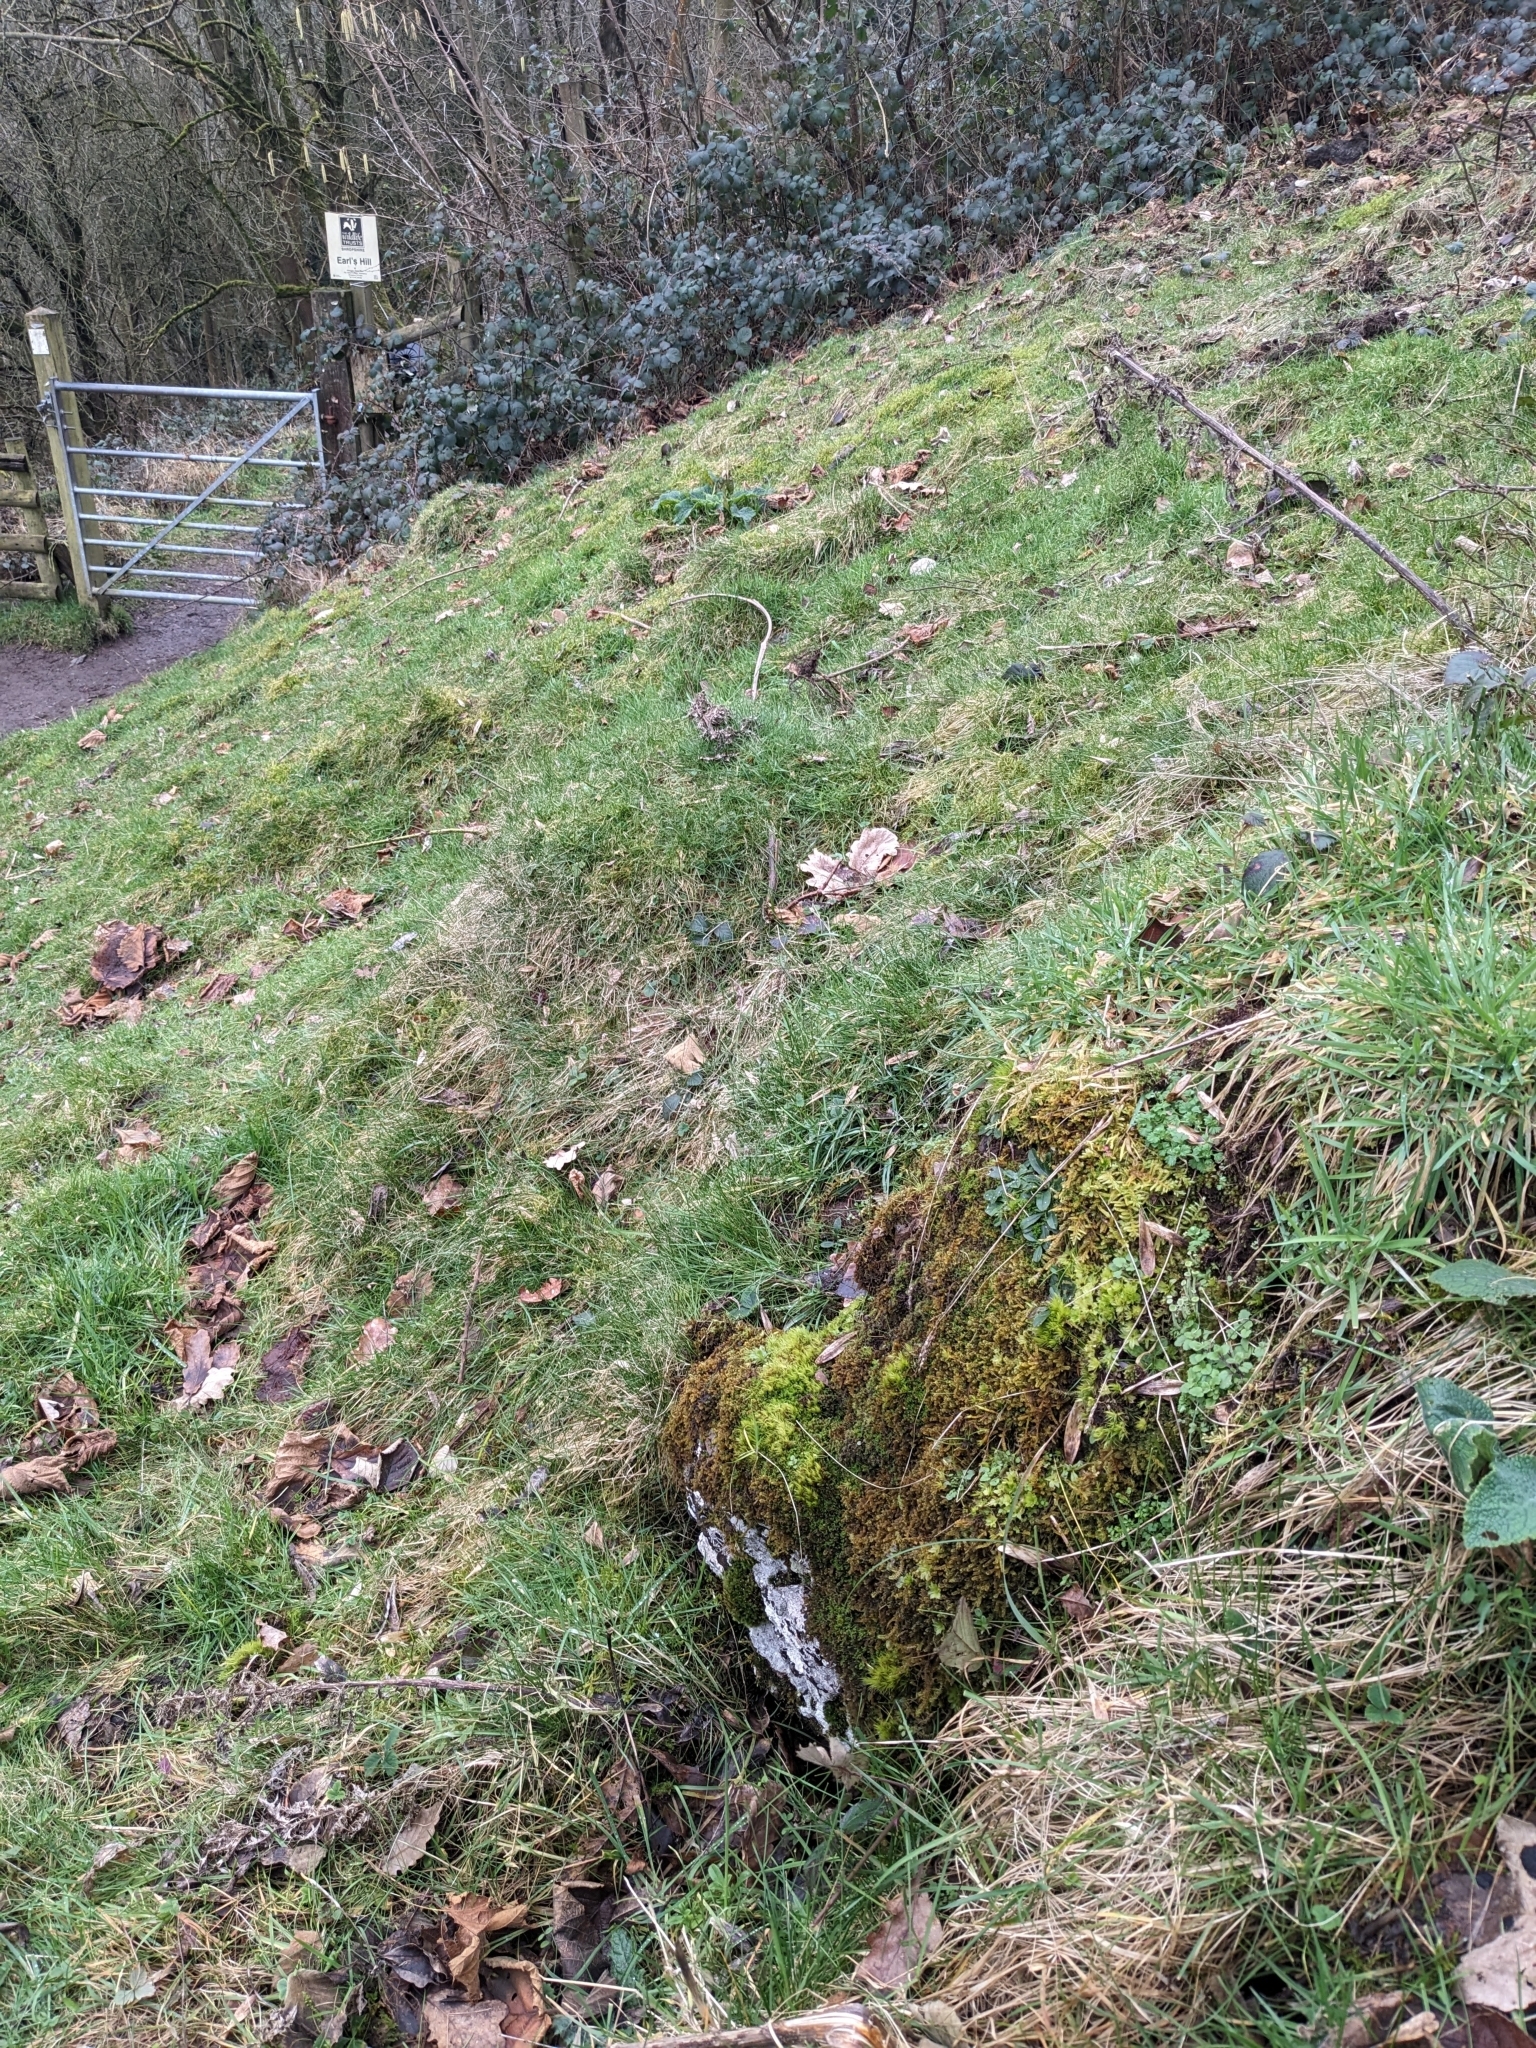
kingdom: Plantae
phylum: Bryophyta
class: Bryopsida
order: Bryales
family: Bryaceae
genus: Rhodobryum
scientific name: Rhodobryum roseum
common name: Rose-moss
